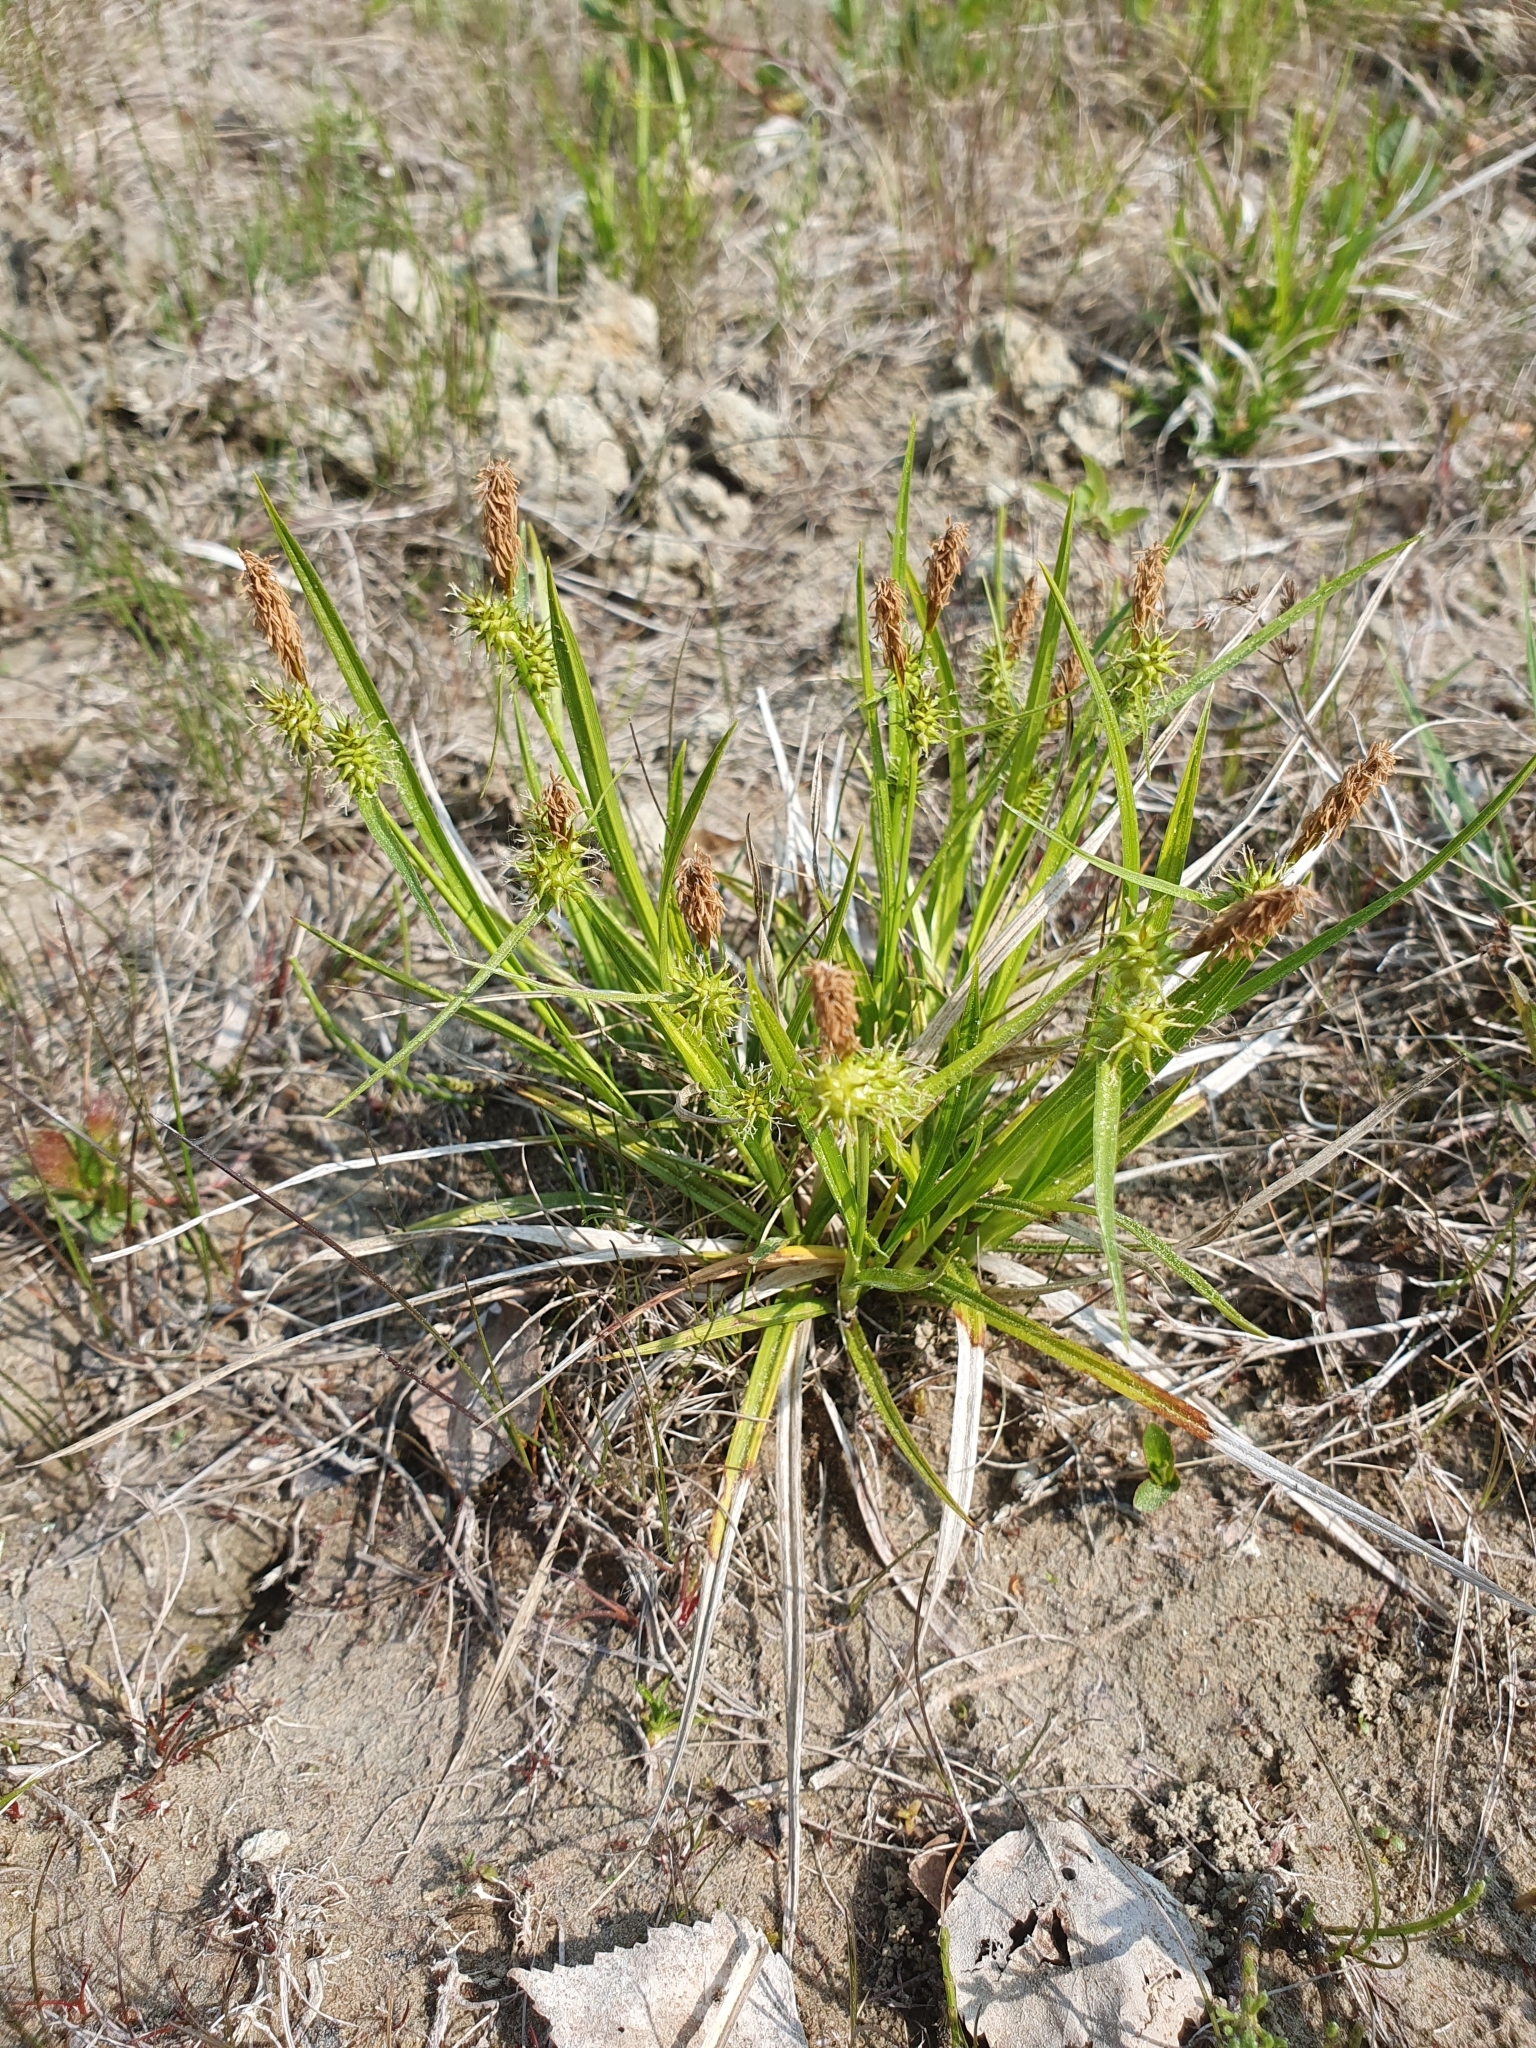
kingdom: Plantae
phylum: Tracheophyta
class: Liliopsida
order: Poales
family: Cyperaceae
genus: Carex
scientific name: Carex flava
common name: Large yellow-sedge
